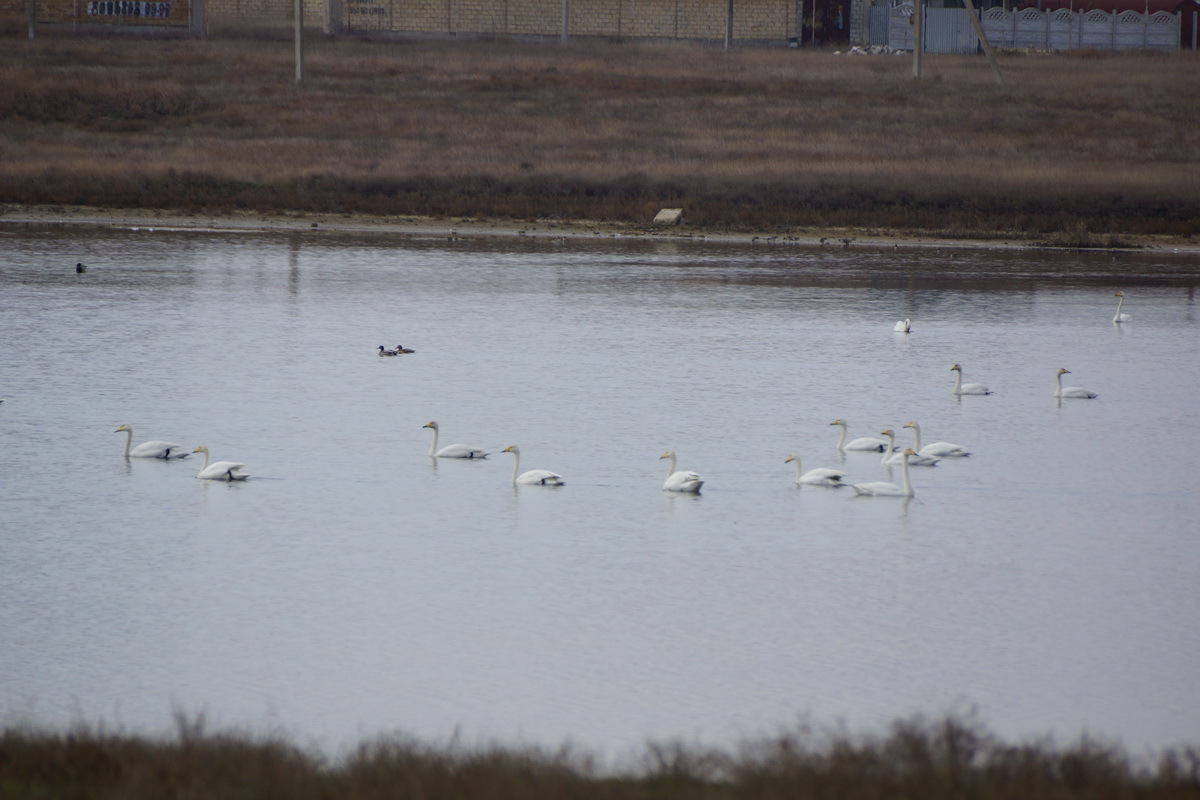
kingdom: Animalia
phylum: Chordata
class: Aves
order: Anseriformes
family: Anatidae
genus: Cygnus
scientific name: Cygnus cygnus
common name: Whooper swan
